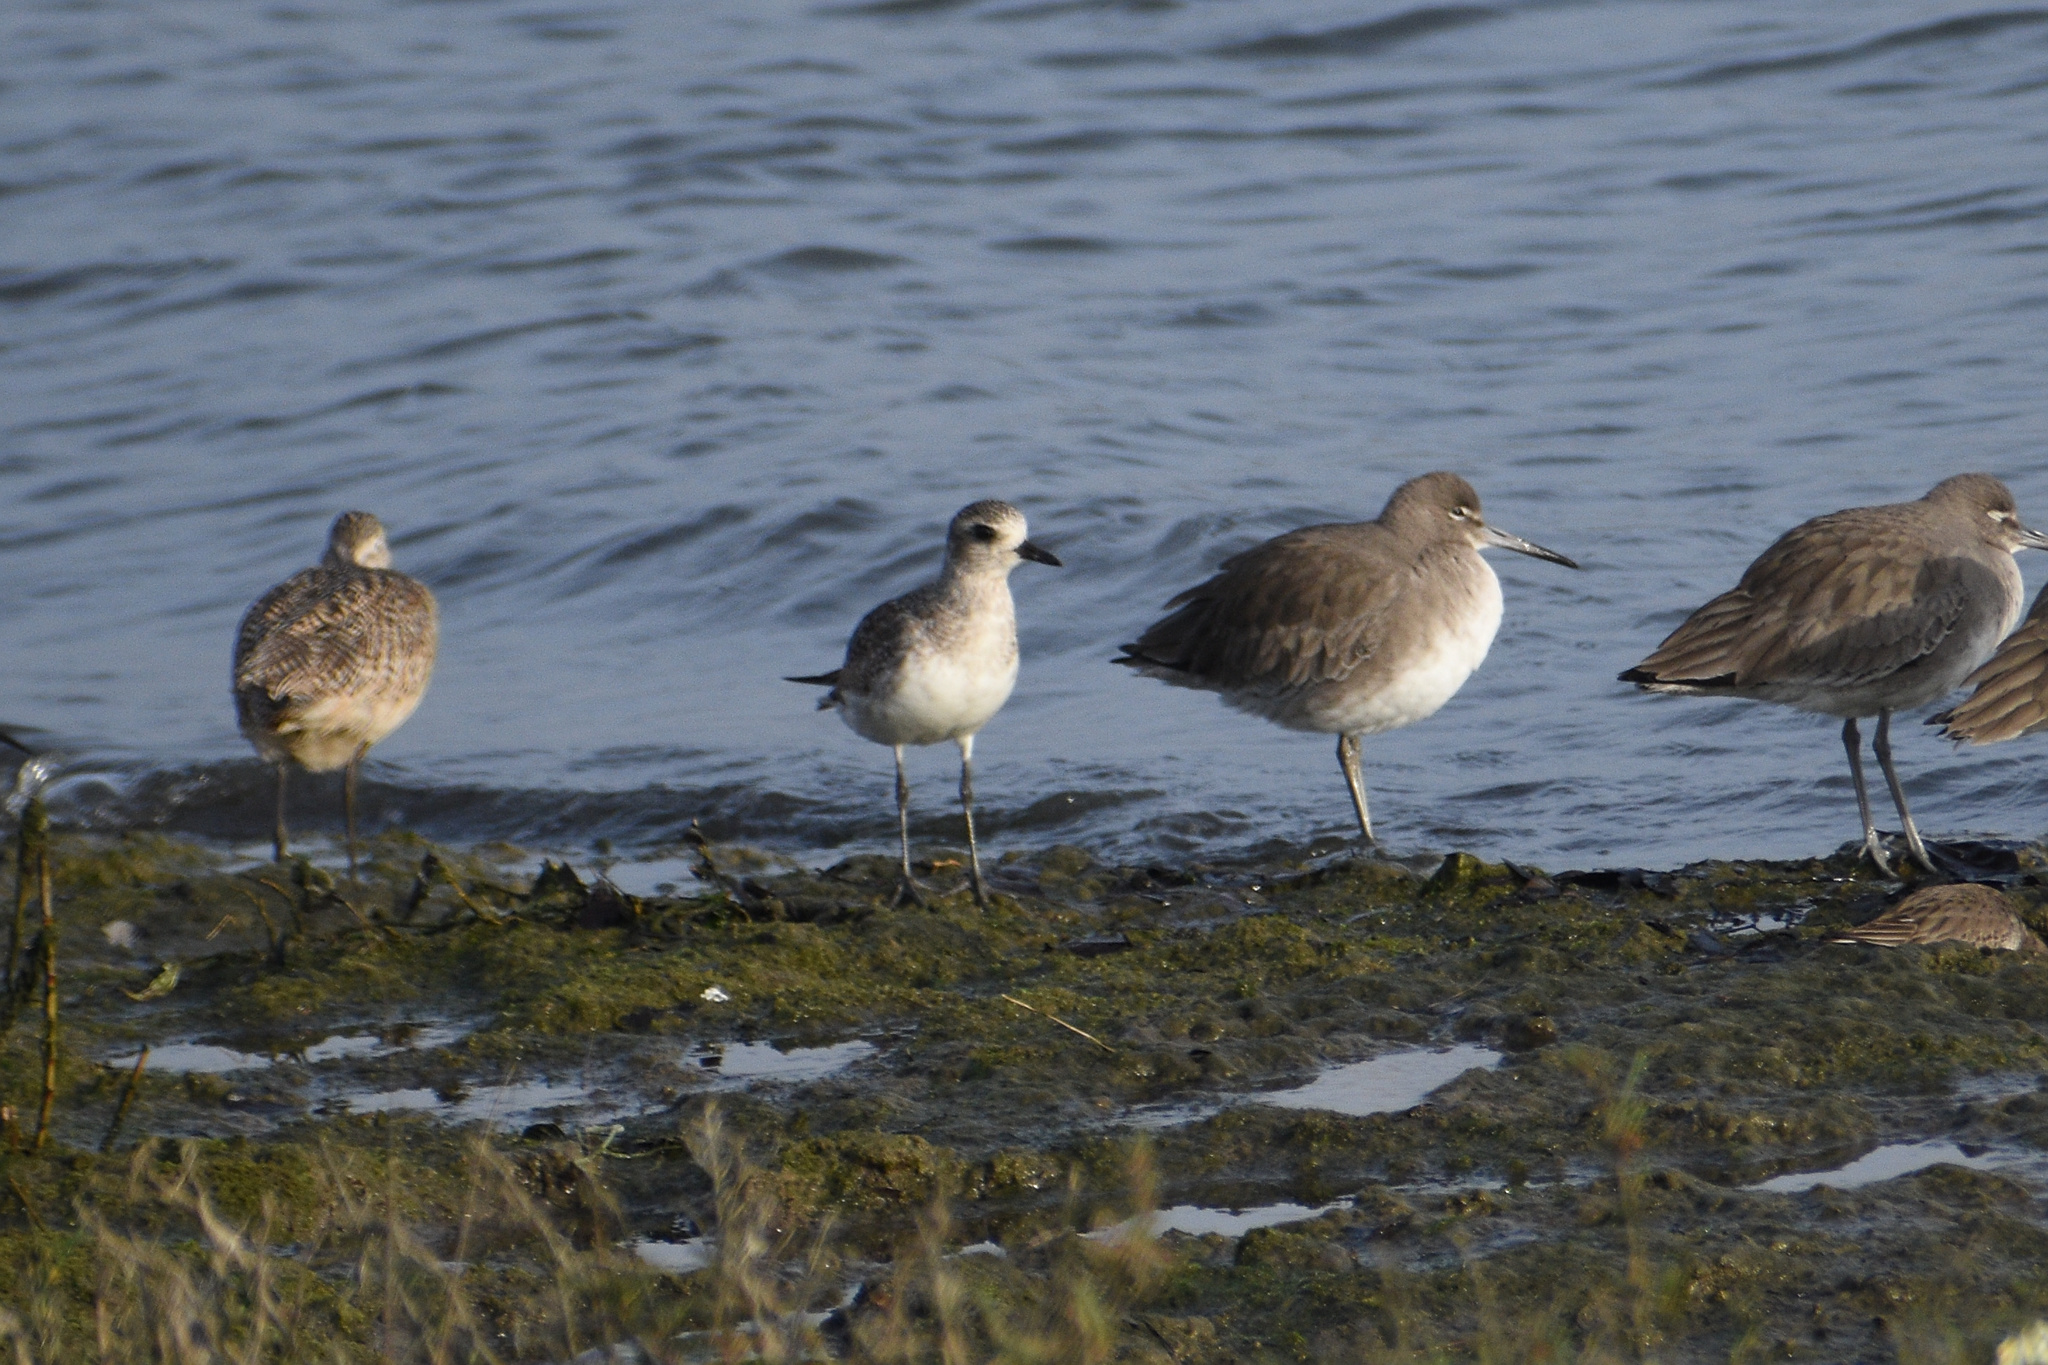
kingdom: Animalia
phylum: Chordata
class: Aves
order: Charadriiformes
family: Charadriidae
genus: Pluvialis
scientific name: Pluvialis squatarola
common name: Grey plover
